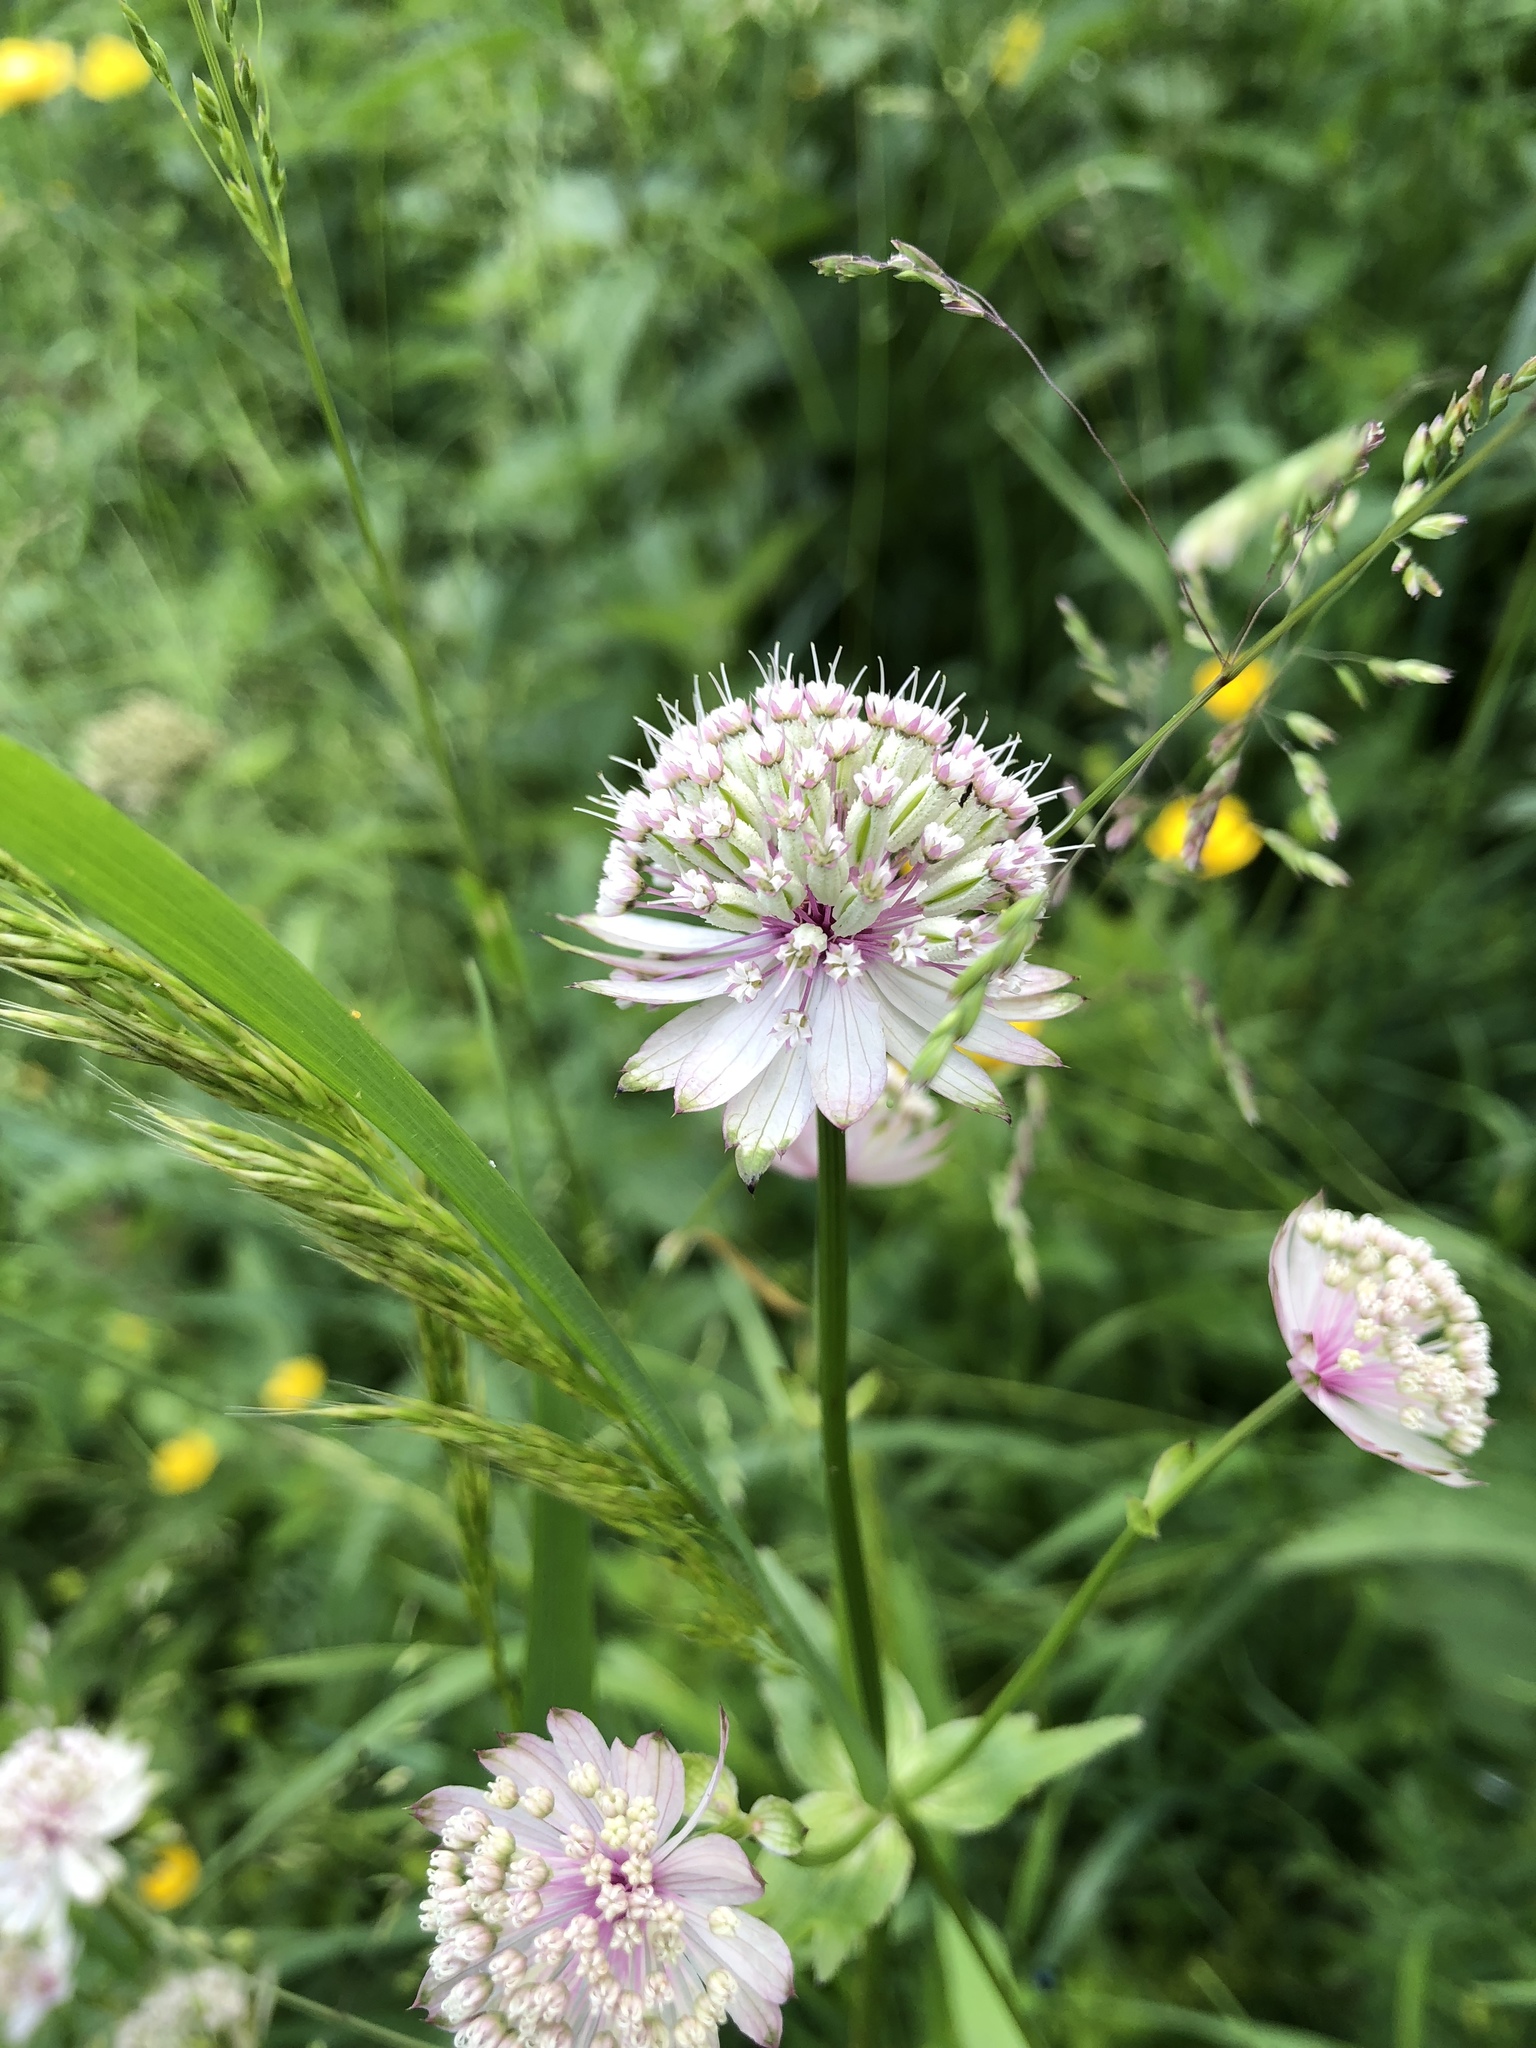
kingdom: Plantae
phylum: Tracheophyta
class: Magnoliopsida
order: Apiales
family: Apiaceae
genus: Astrantia
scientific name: Astrantia major
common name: Greater masterwort
